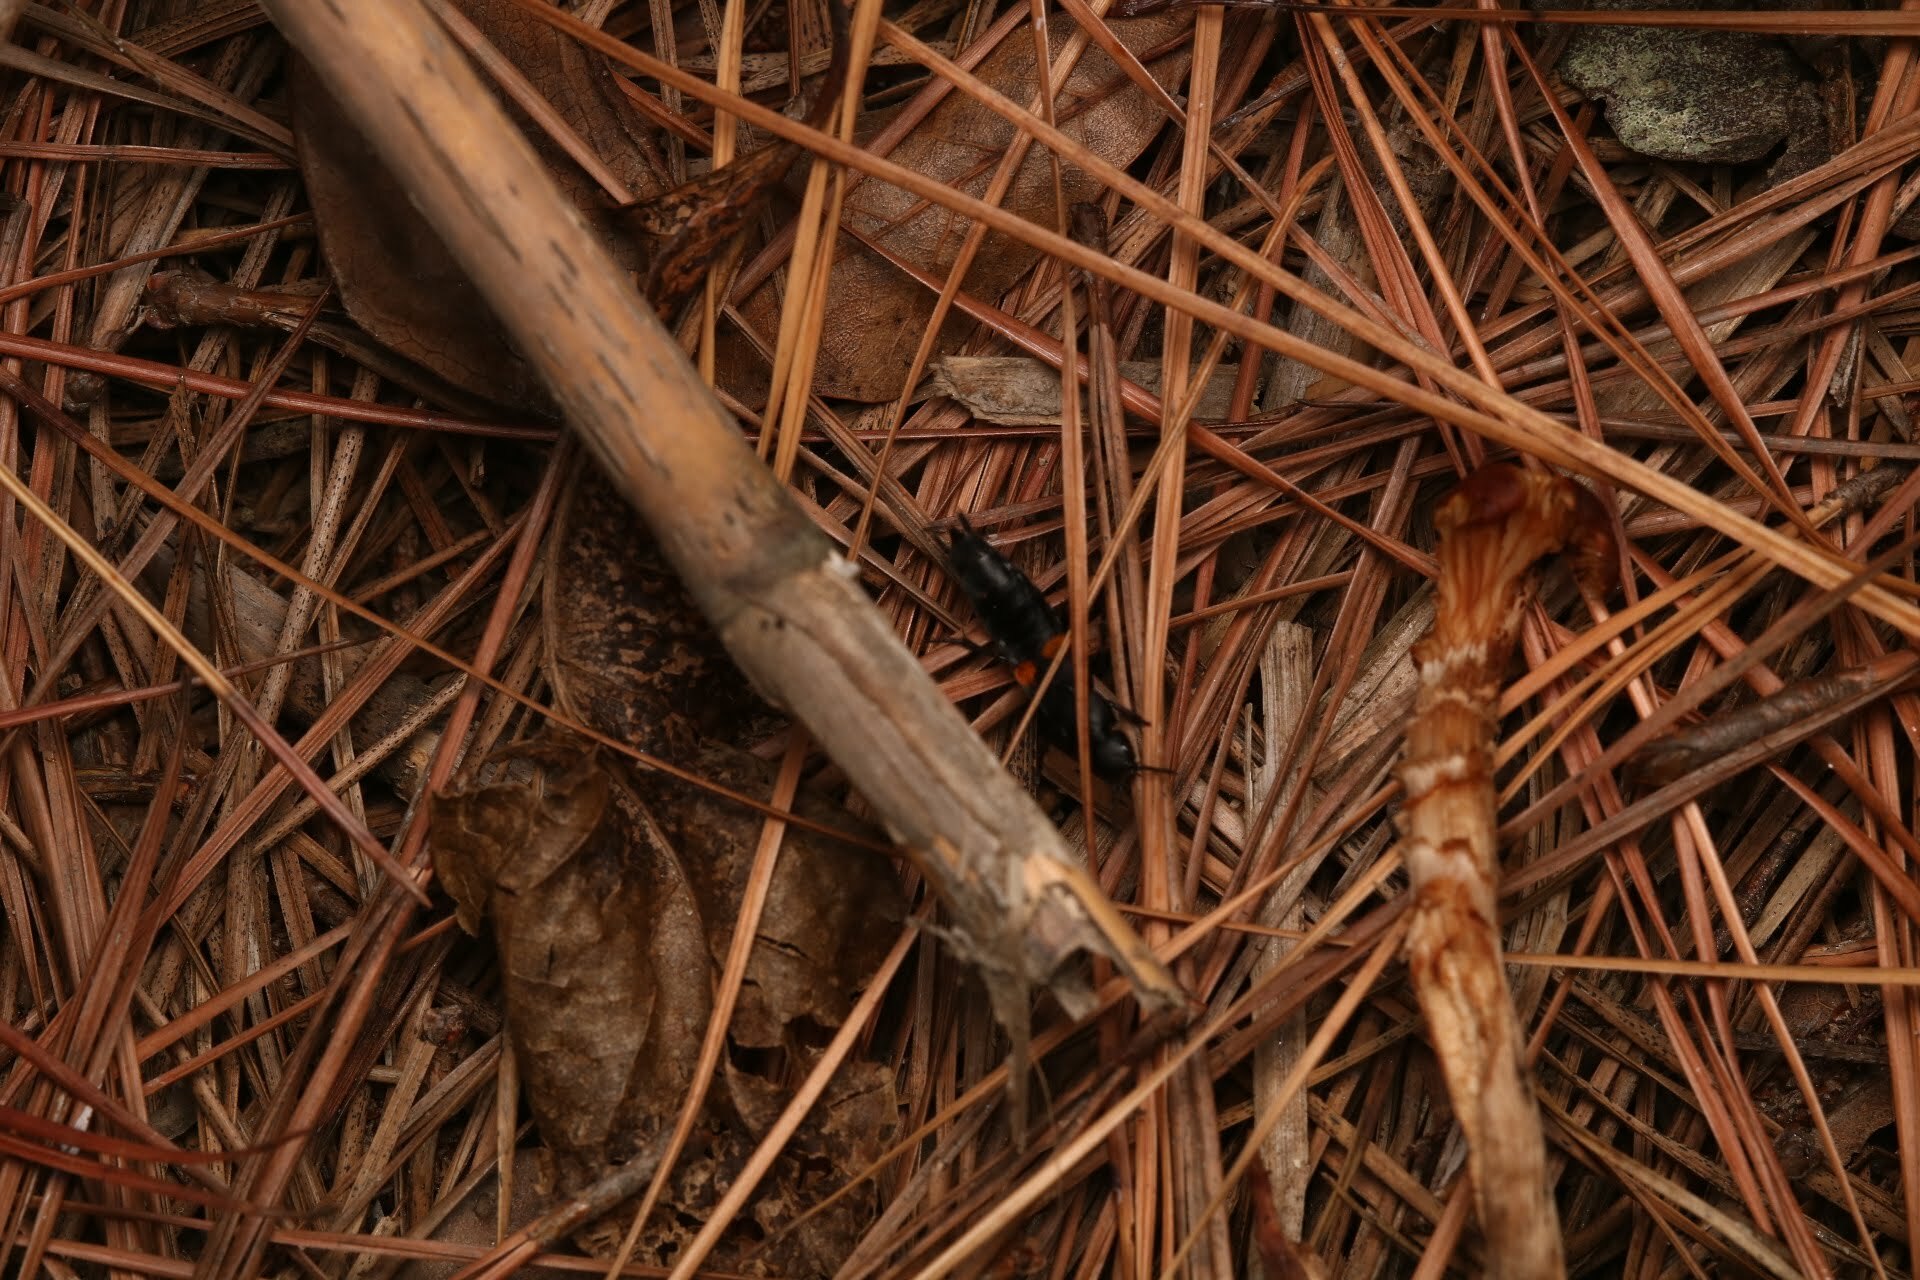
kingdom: Animalia
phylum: Arthropoda
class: Insecta
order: Coleoptera
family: Staphylinidae
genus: Platydracus
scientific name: Platydracus fossator
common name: Red-spotted rove beetle
